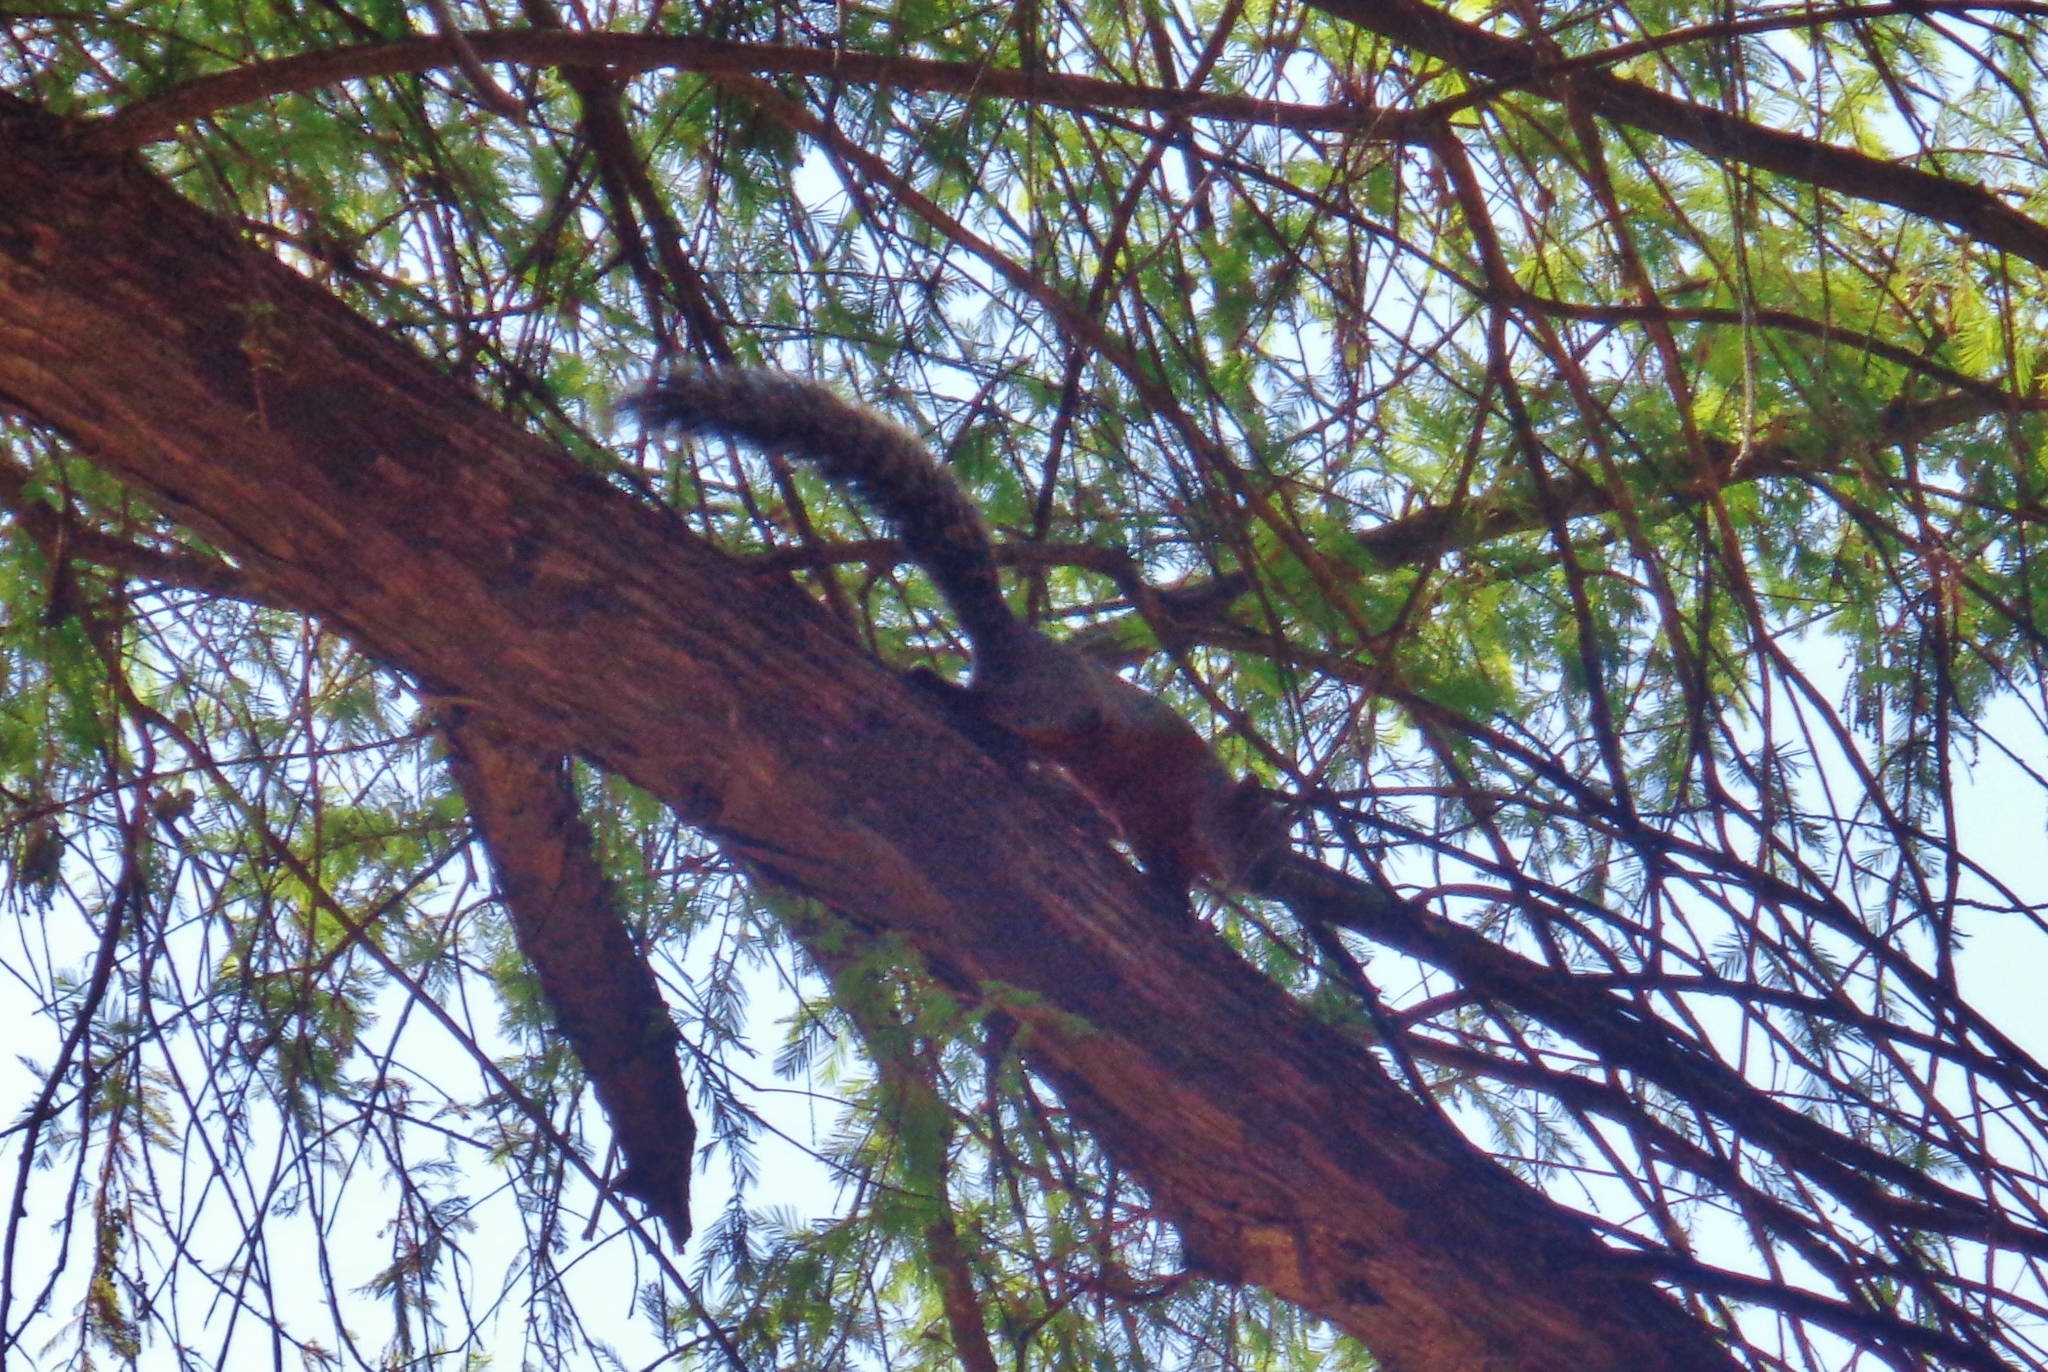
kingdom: Animalia
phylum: Chordata
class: Mammalia
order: Rodentia
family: Sciuridae
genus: Sciurus
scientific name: Sciurus aureogaster
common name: Red-bellied squirrel
